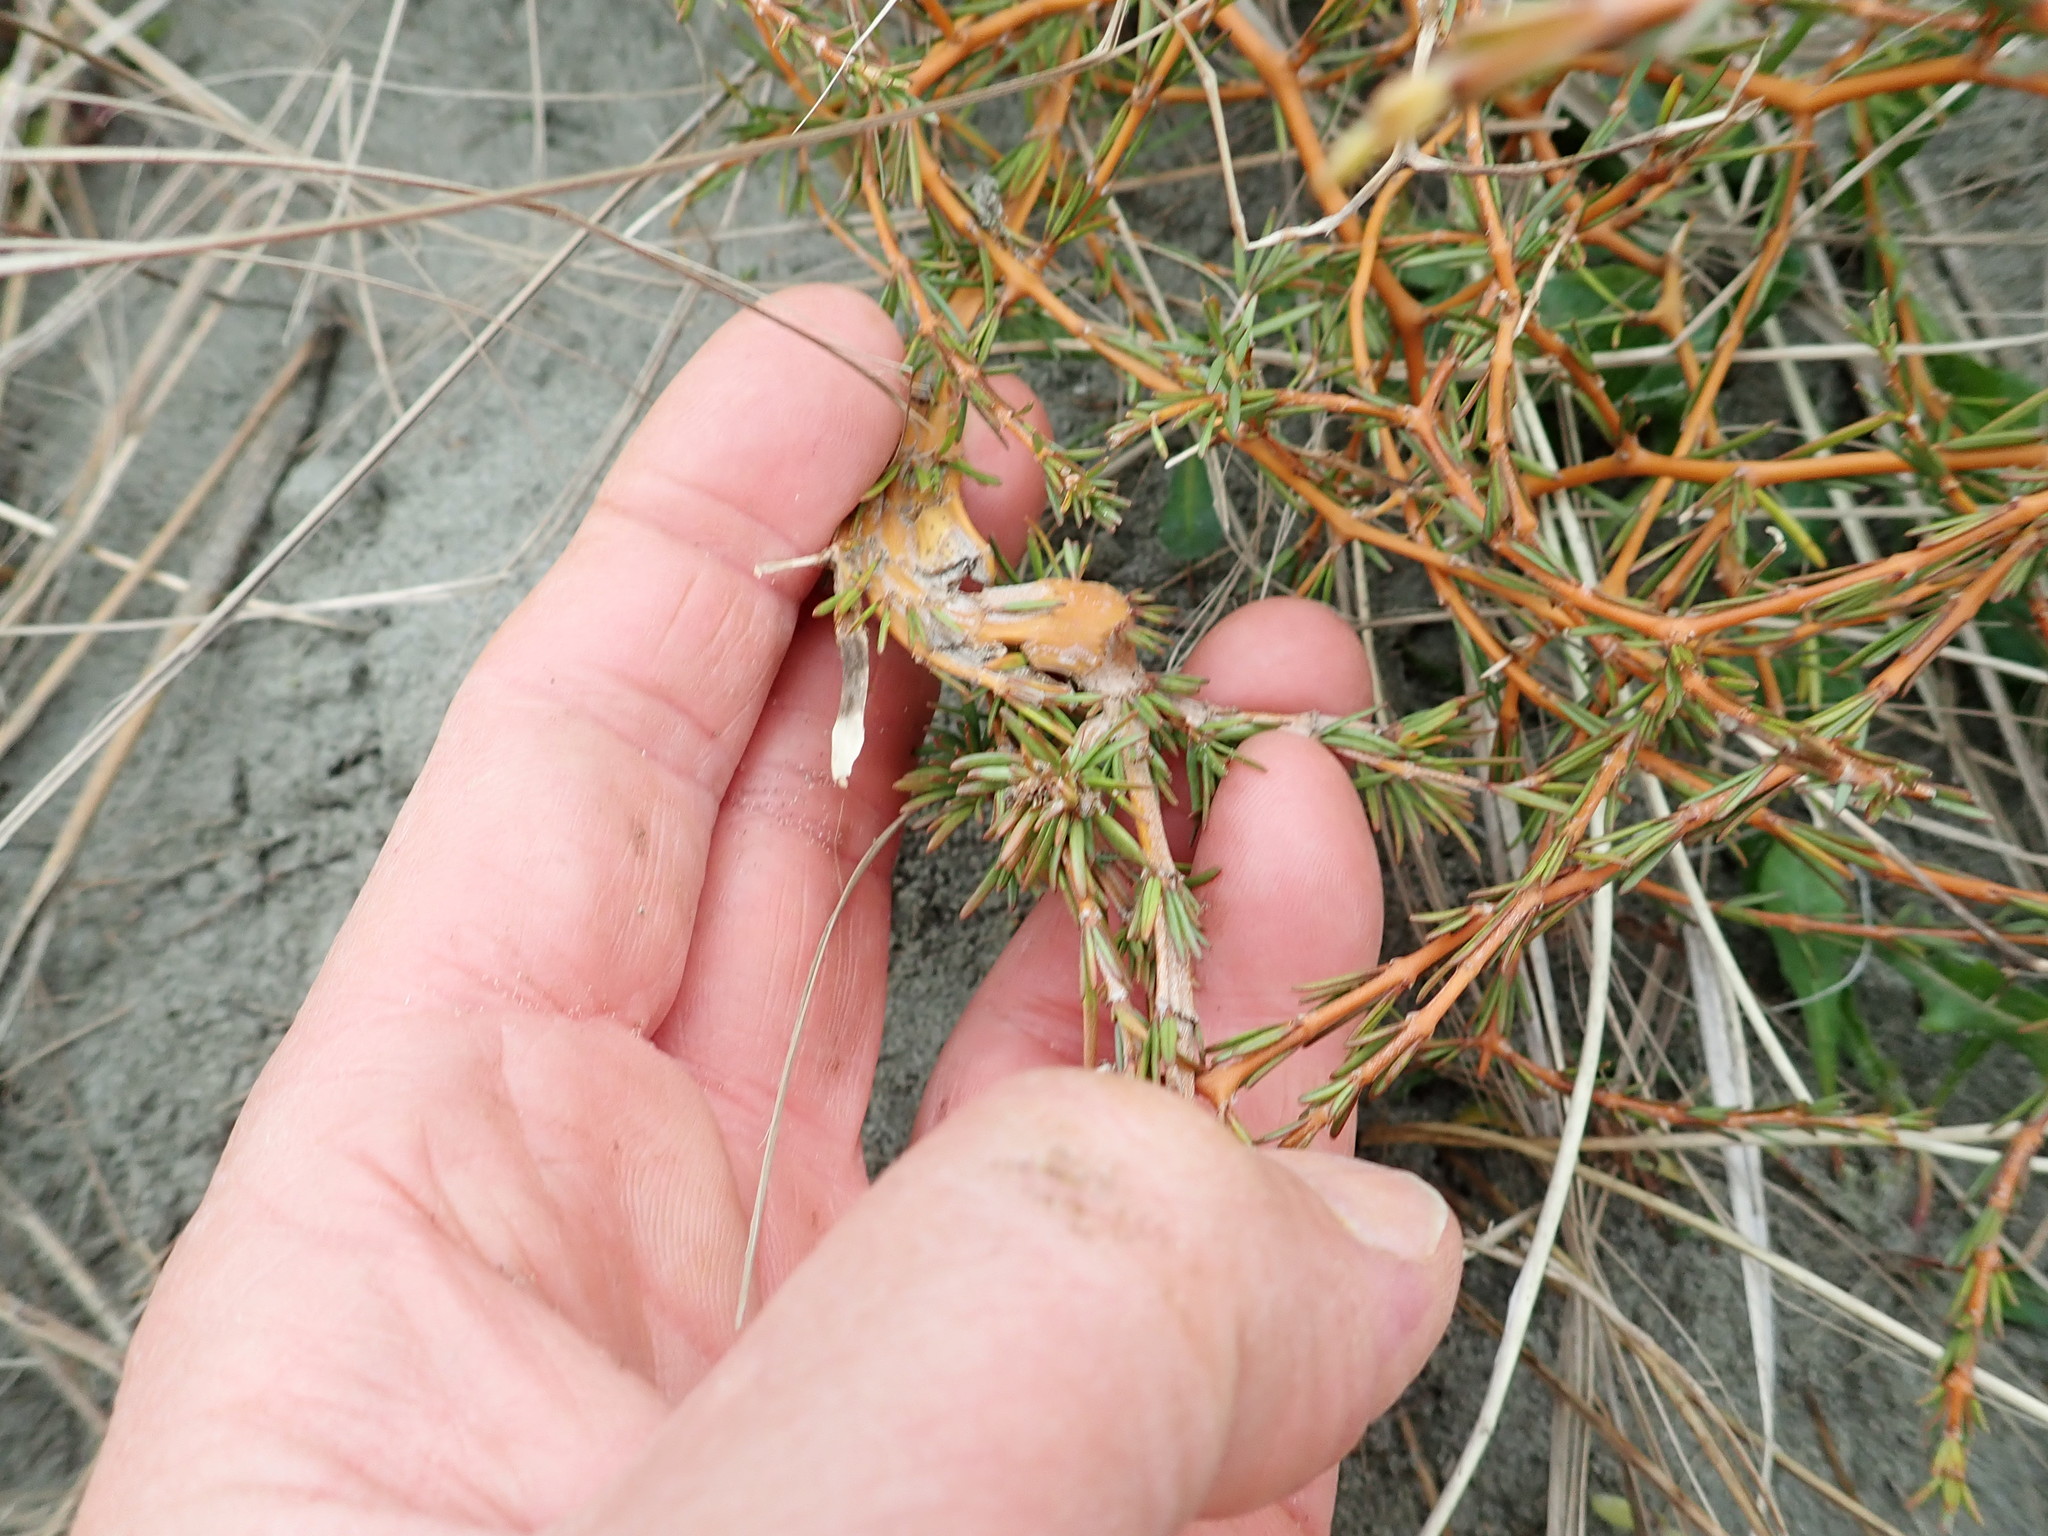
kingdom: Plantae
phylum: Tracheophyta
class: Magnoliopsida
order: Gentianales
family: Rubiaceae
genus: Coprosma
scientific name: Coprosma acerosa
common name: Sand coprosma
